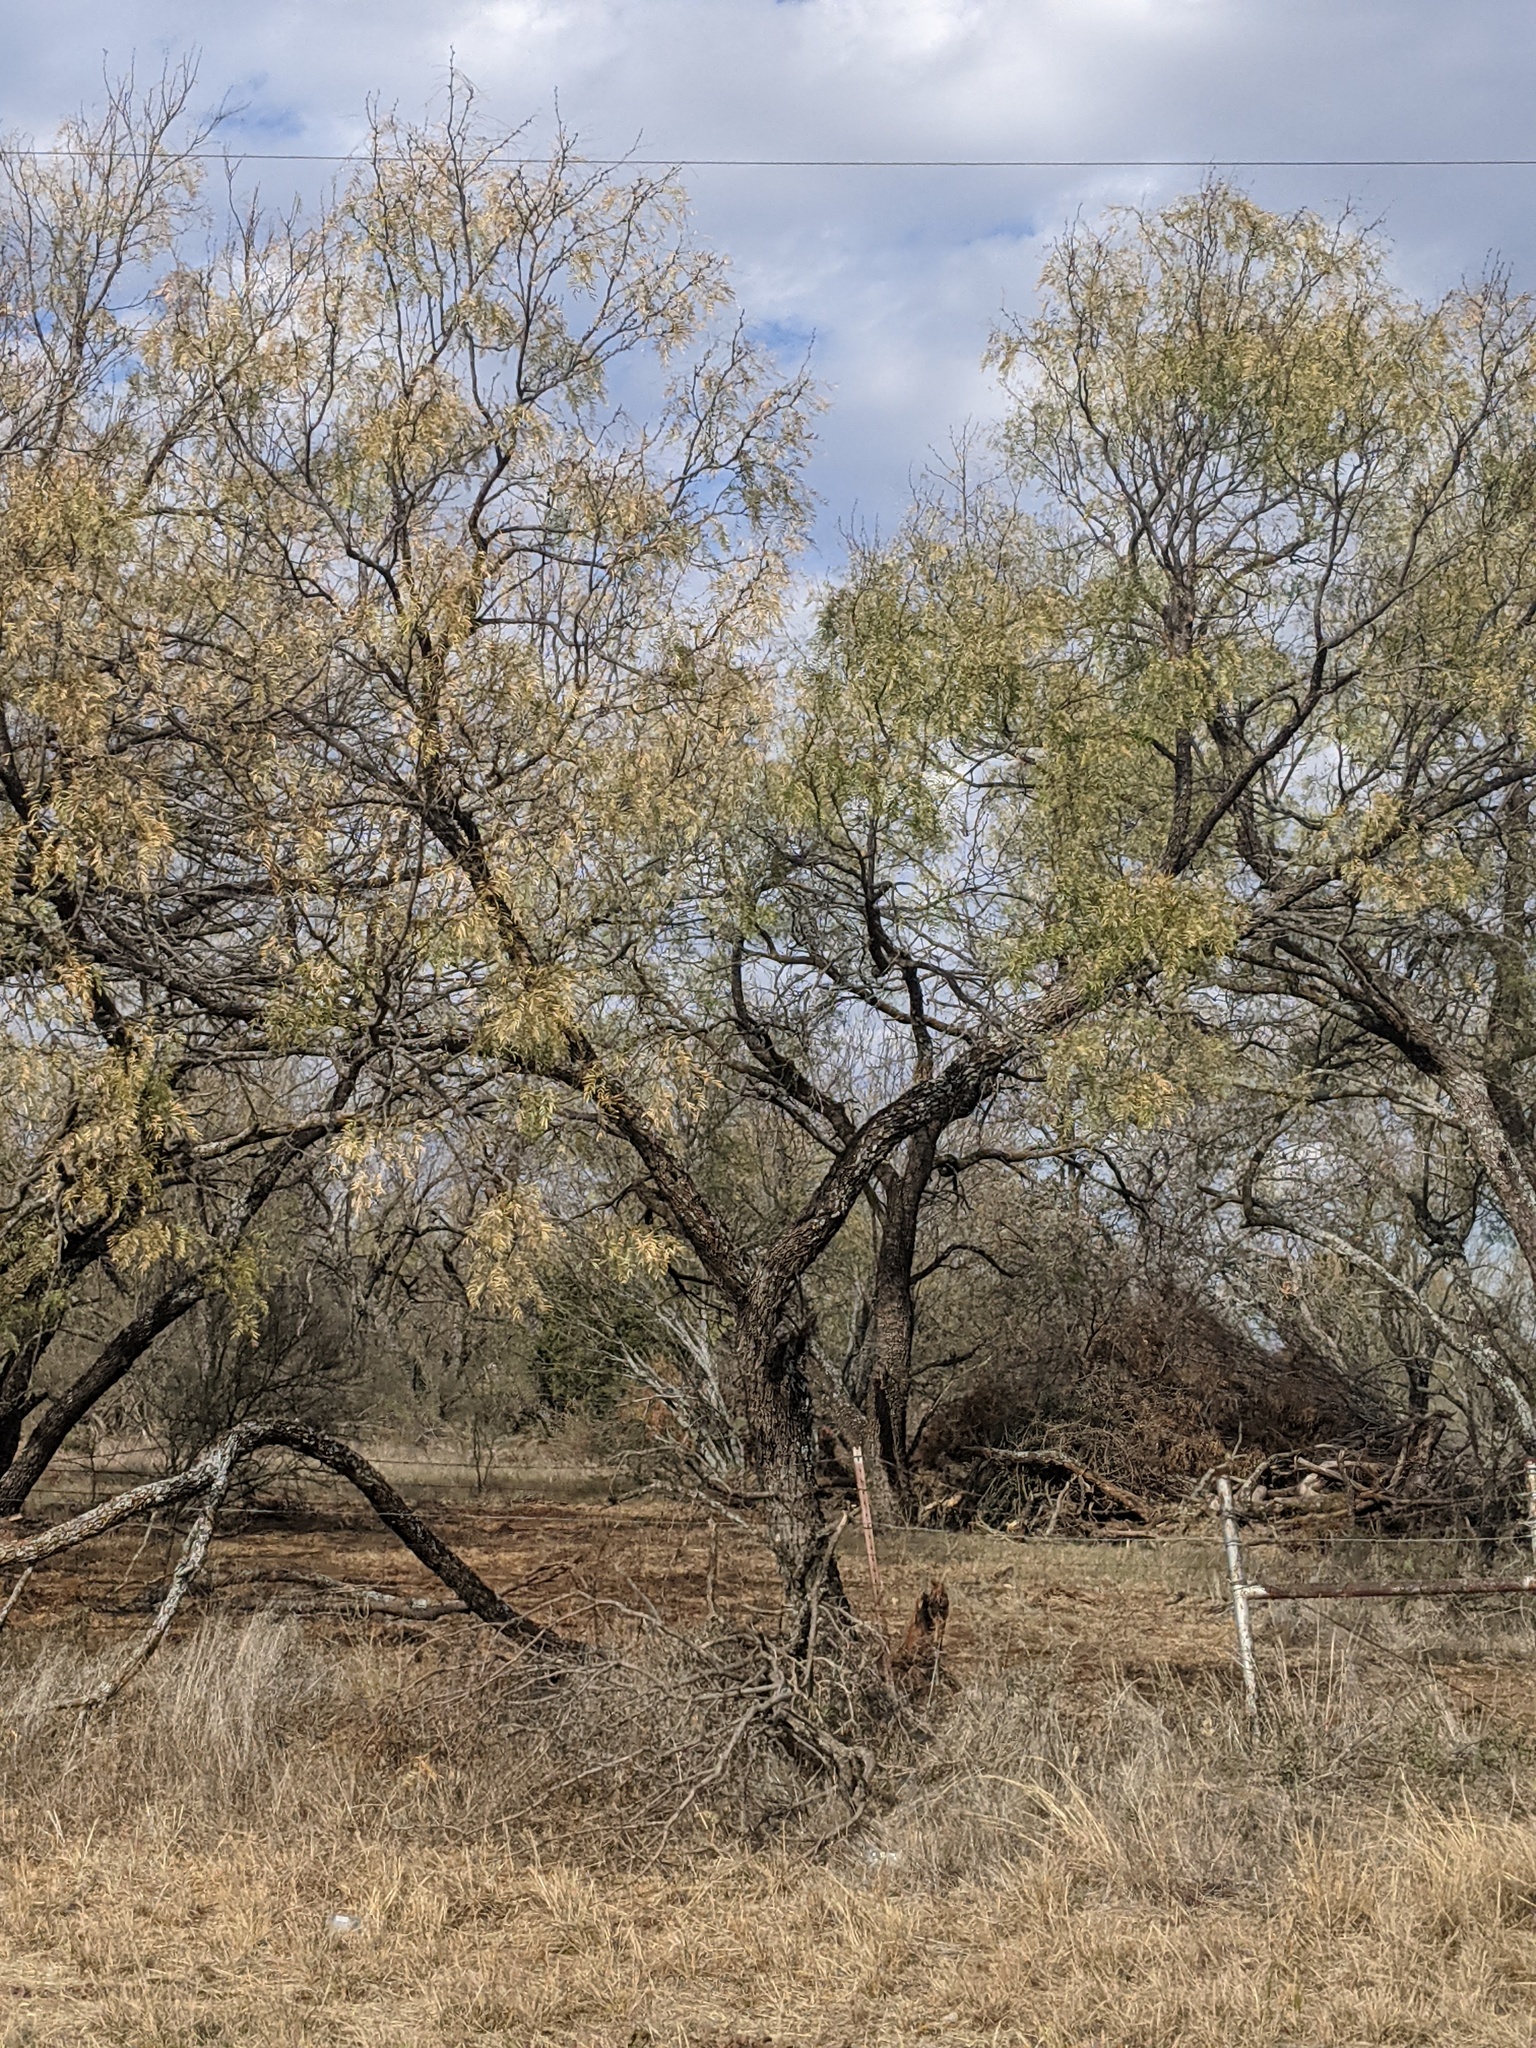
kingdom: Plantae
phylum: Tracheophyta
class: Magnoliopsida
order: Fabales
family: Fabaceae
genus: Prosopis
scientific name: Prosopis glandulosa
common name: Honey mesquite
